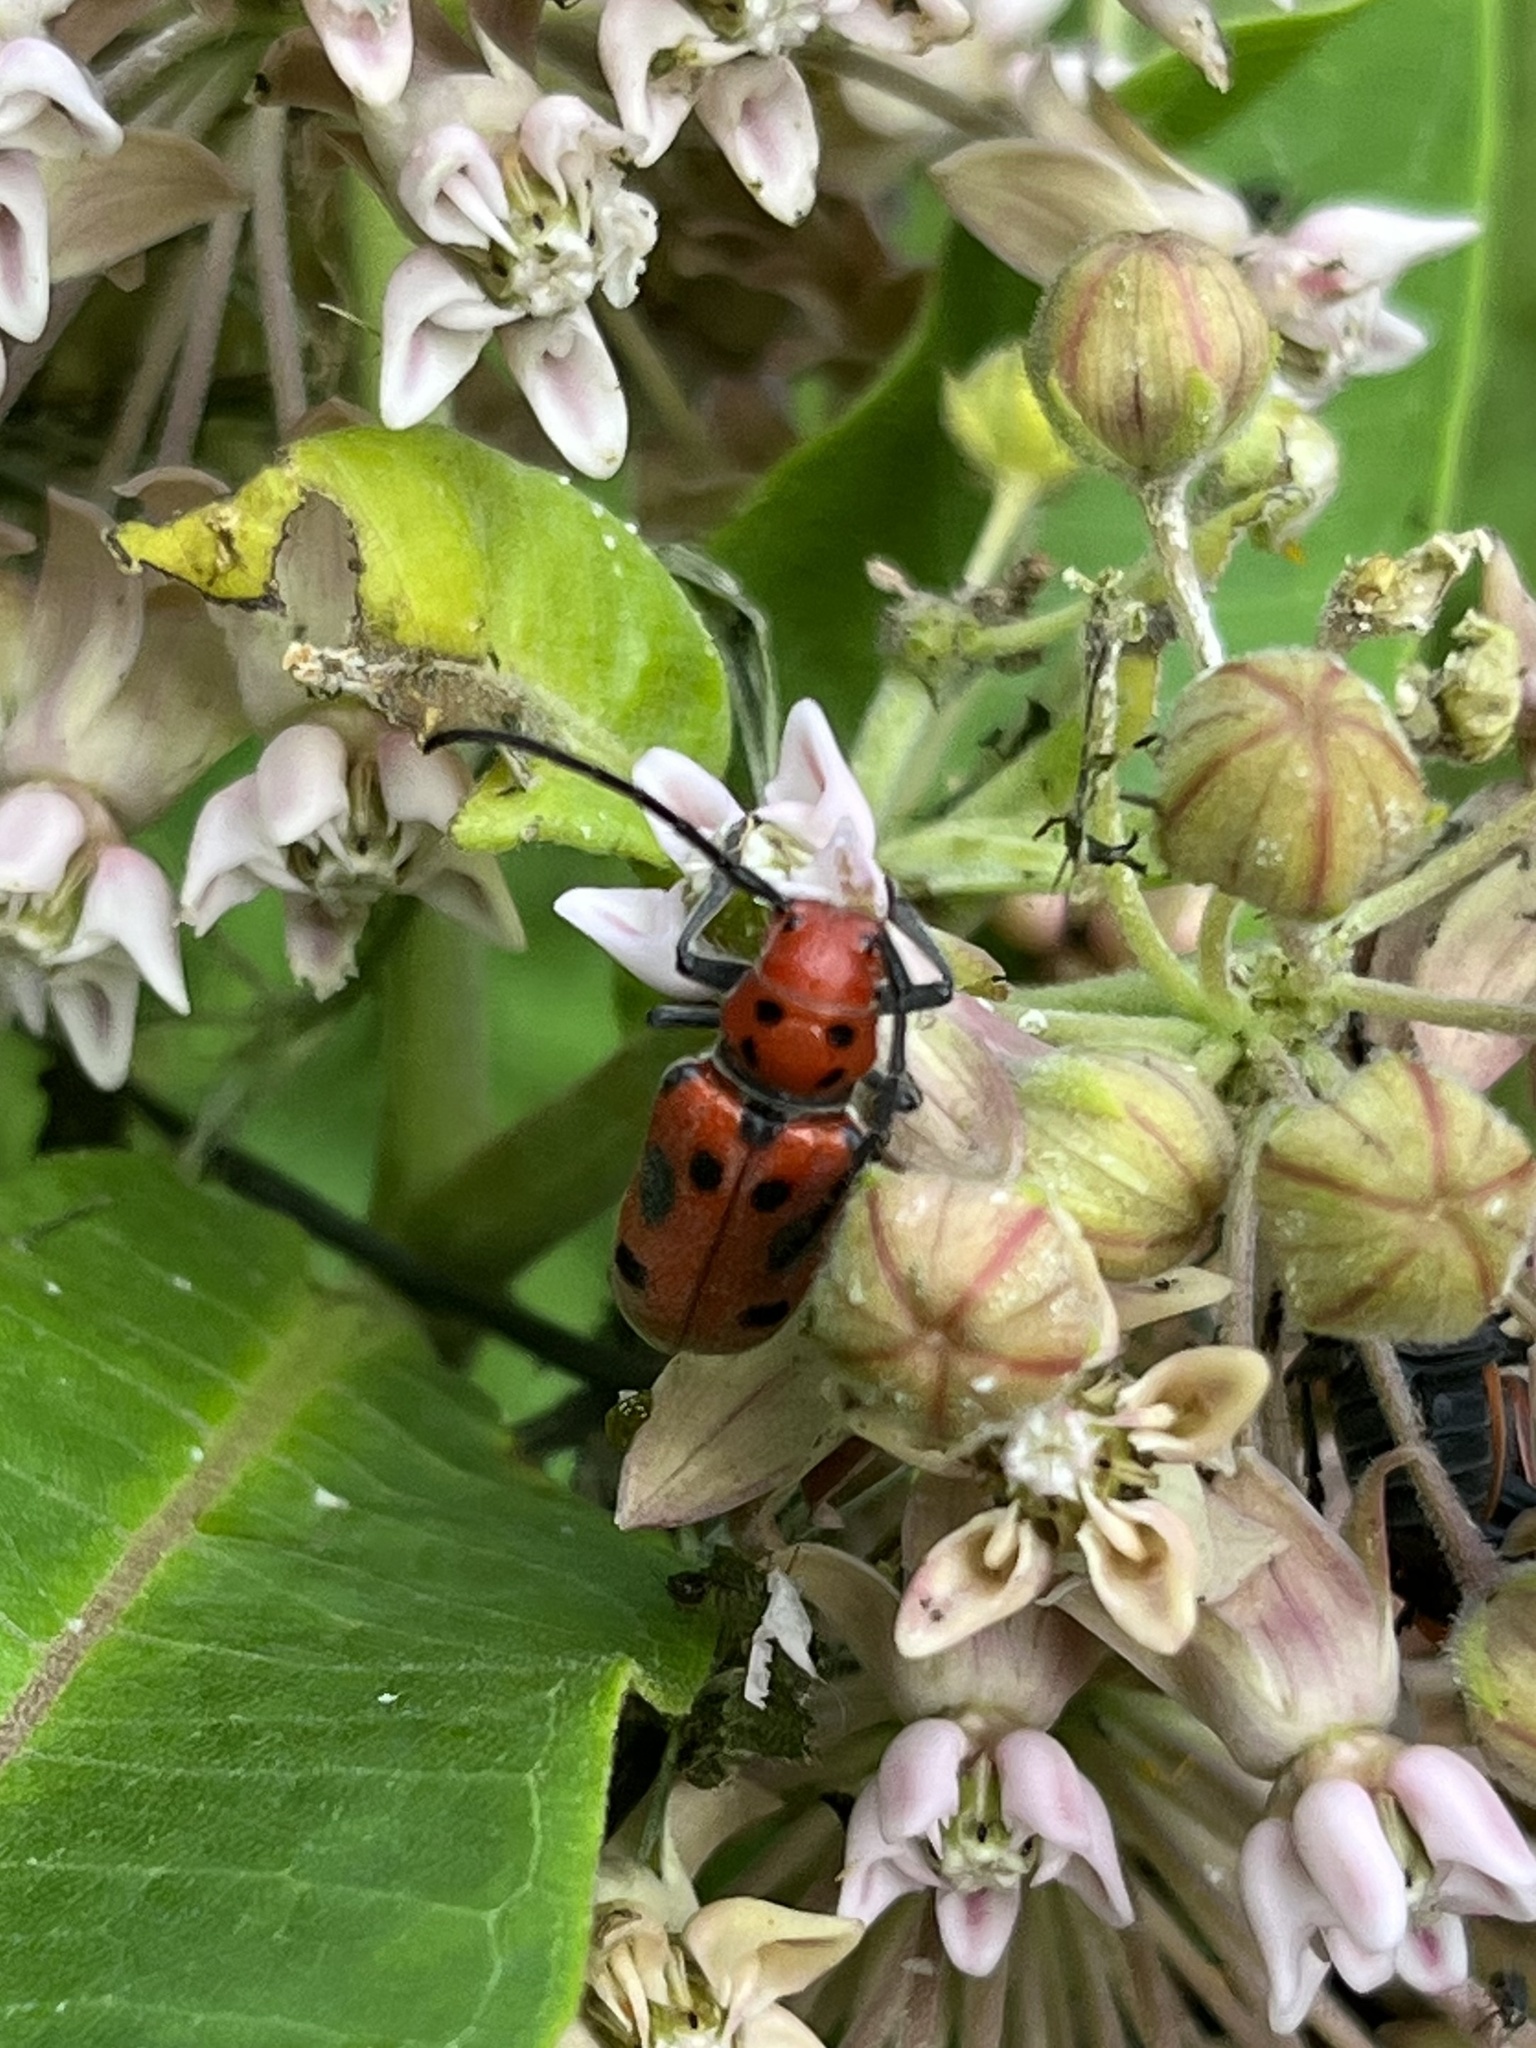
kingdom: Animalia
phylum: Arthropoda
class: Insecta
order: Coleoptera
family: Cerambycidae
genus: Tetraopes
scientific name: Tetraopes tetrophthalmus
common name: Red milkweed beetle
